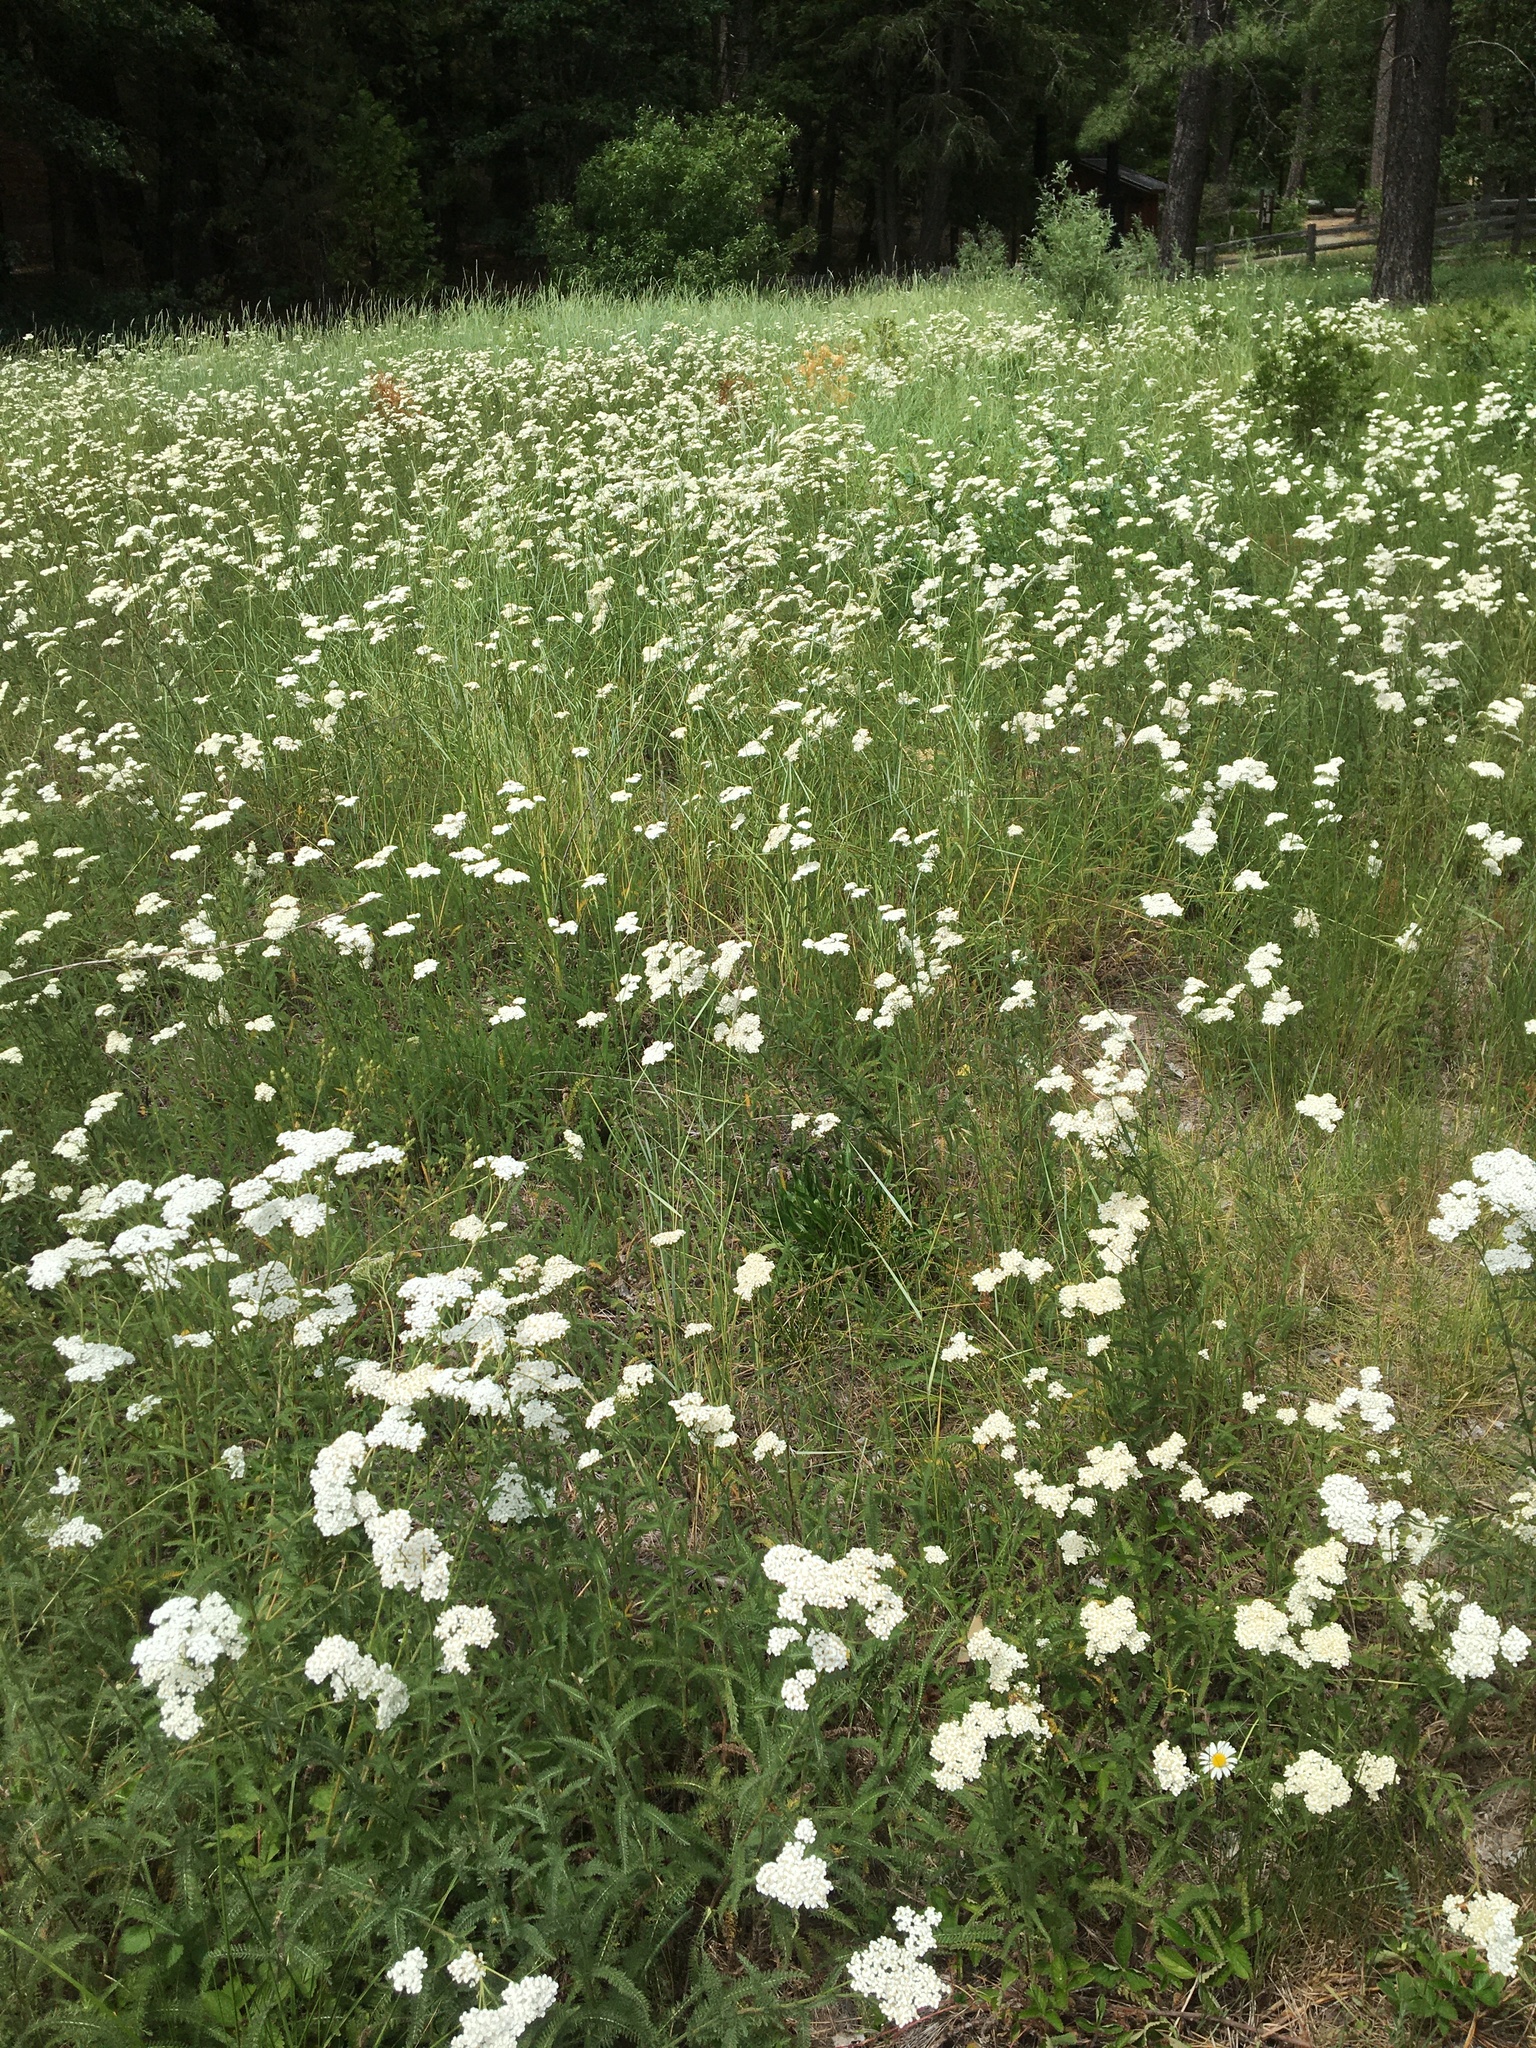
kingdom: Plantae
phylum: Tracheophyta
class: Magnoliopsida
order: Asterales
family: Asteraceae
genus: Achillea
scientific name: Achillea millefolium
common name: Yarrow
